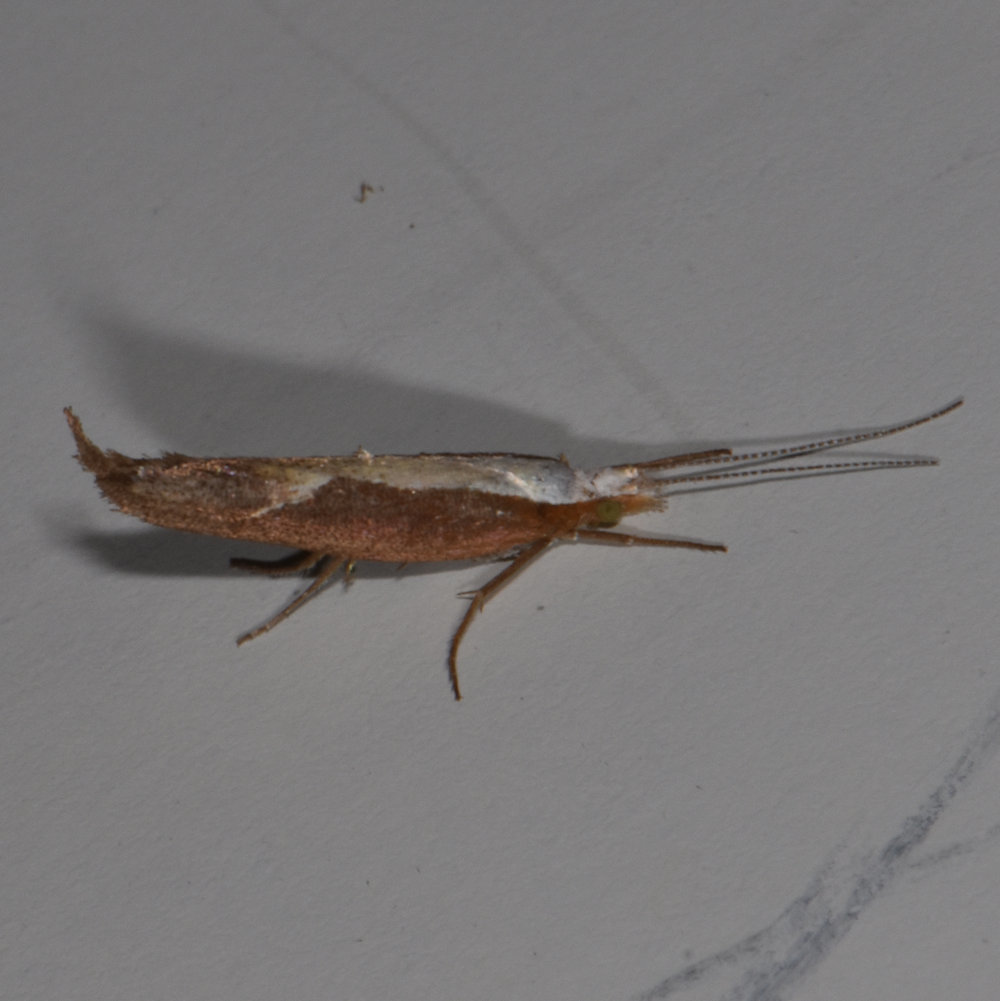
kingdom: Animalia
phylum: Arthropoda
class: Insecta
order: Lepidoptera
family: Ypsolophidae
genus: Ypsolopha
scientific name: Ypsolopha dentella
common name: Honeysuckle moth
